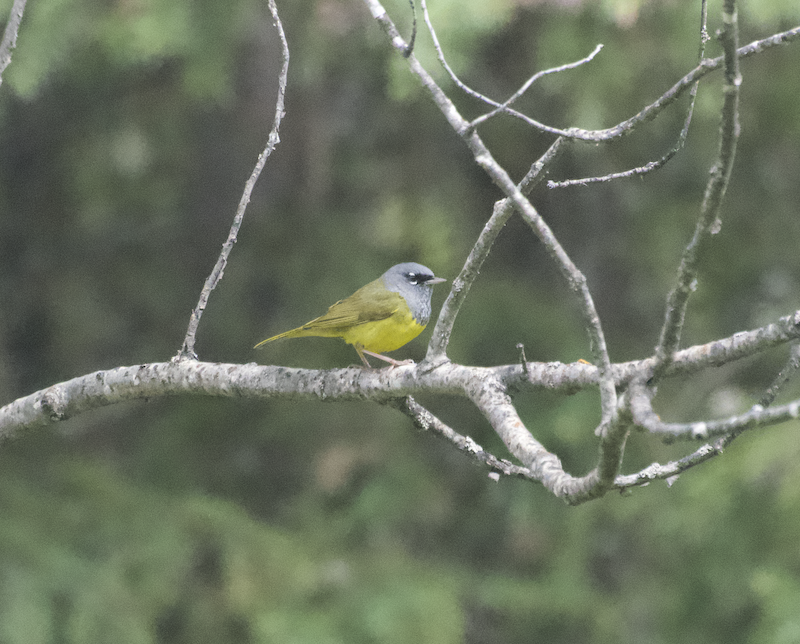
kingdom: Animalia
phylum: Chordata
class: Aves
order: Passeriformes
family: Parulidae
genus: Geothlypis
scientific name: Geothlypis tolmiei
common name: Macgillivray's warbler
